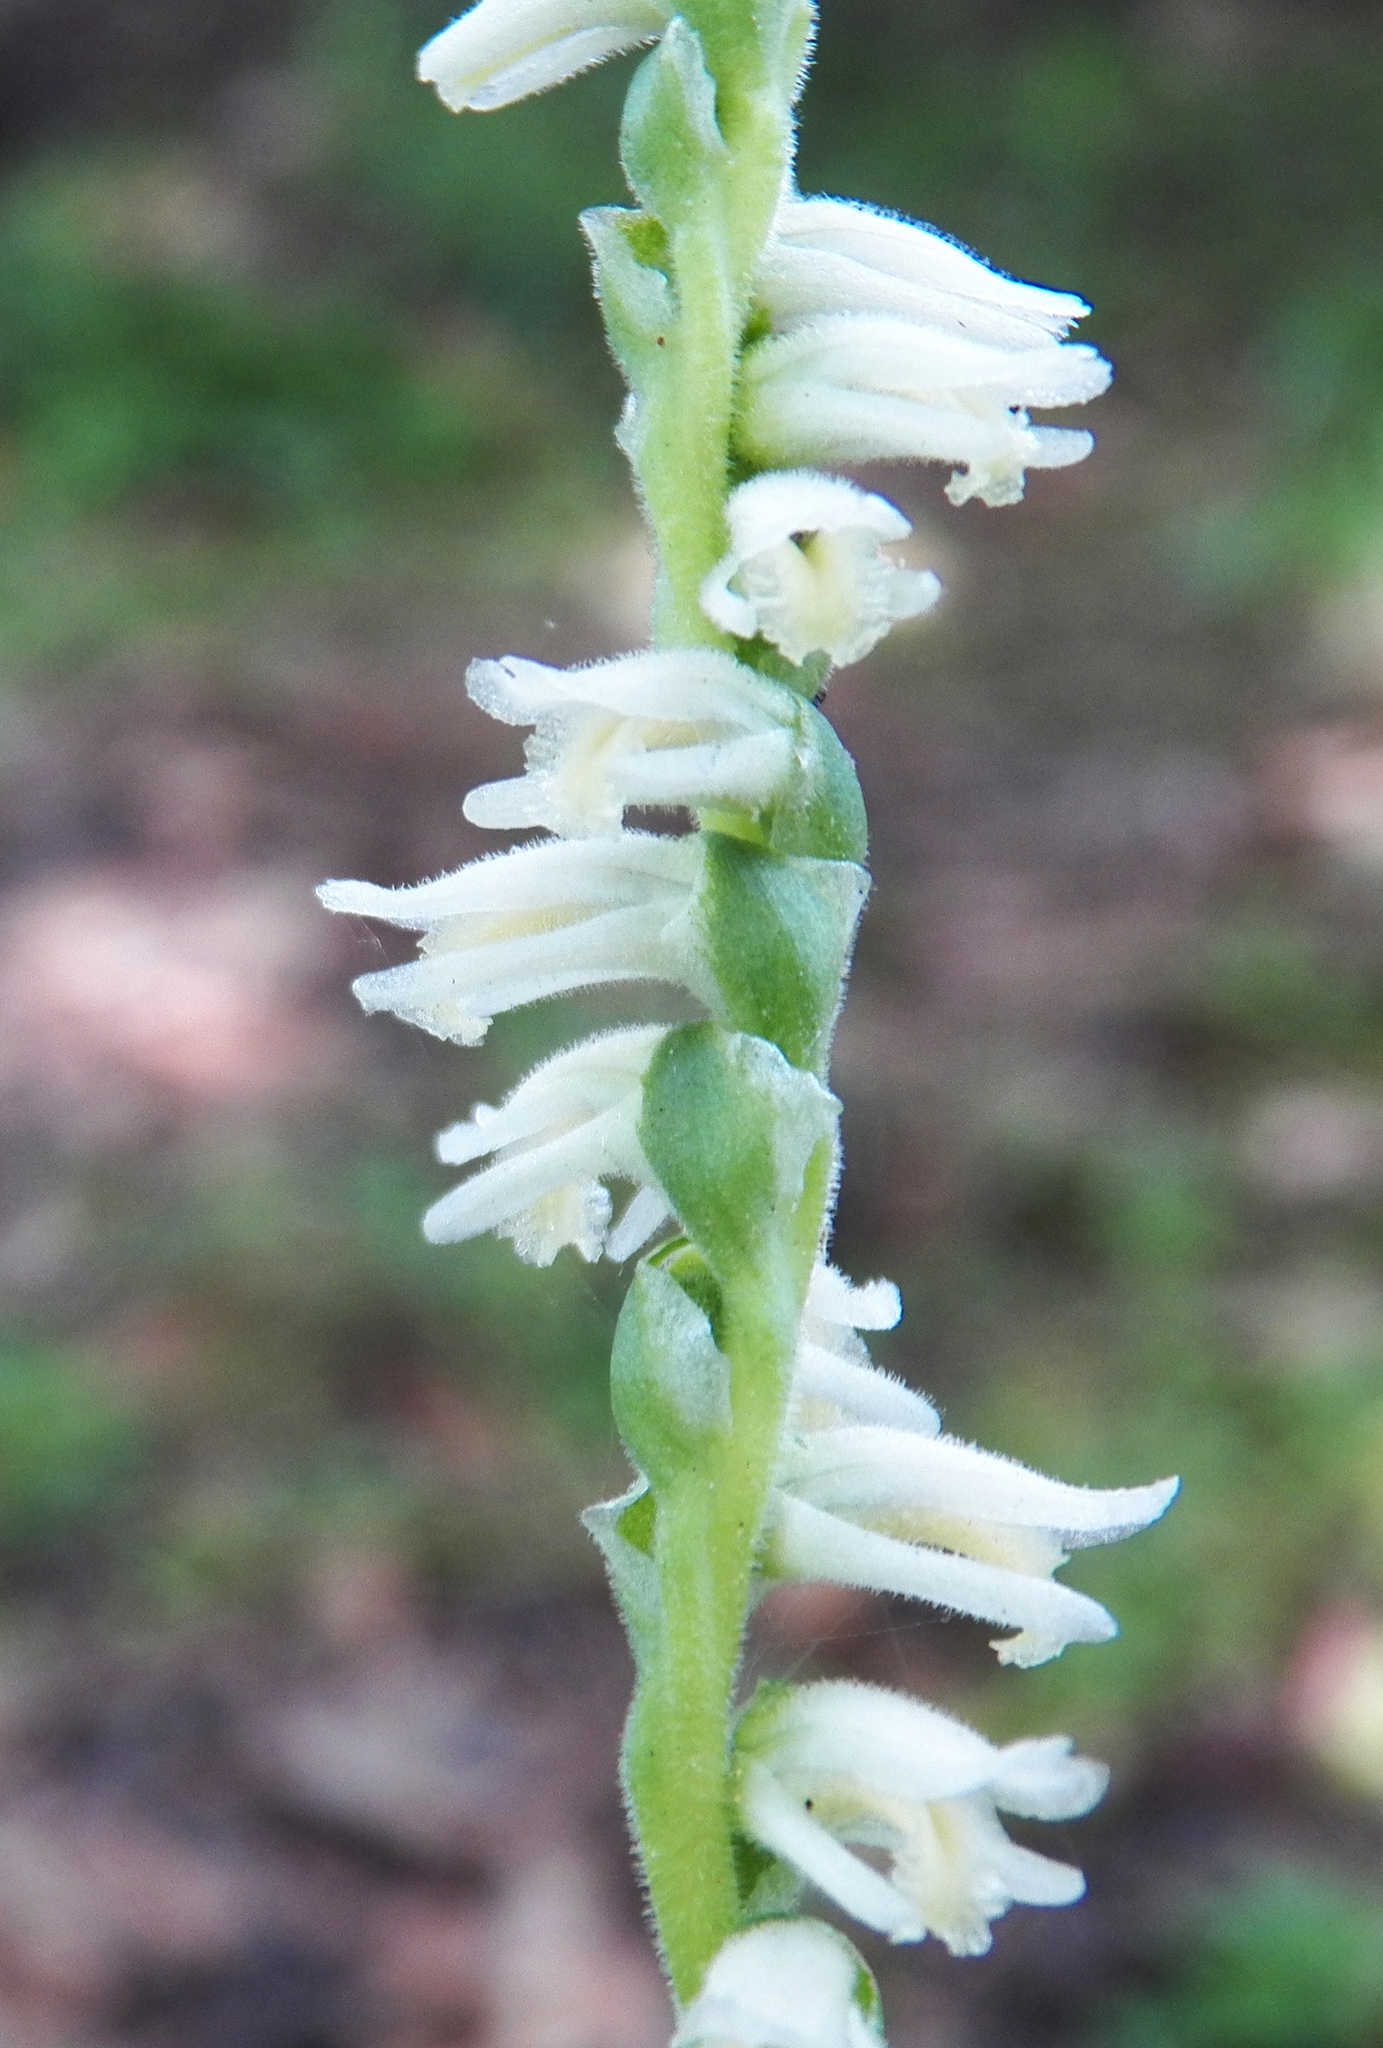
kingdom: Plantae
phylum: Tracheophyta
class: Liliopsida
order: Asparagales
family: Orchidaceae
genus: Spiranthes
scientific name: Spiranthes vernalis
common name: Spring ladies'-tresses
